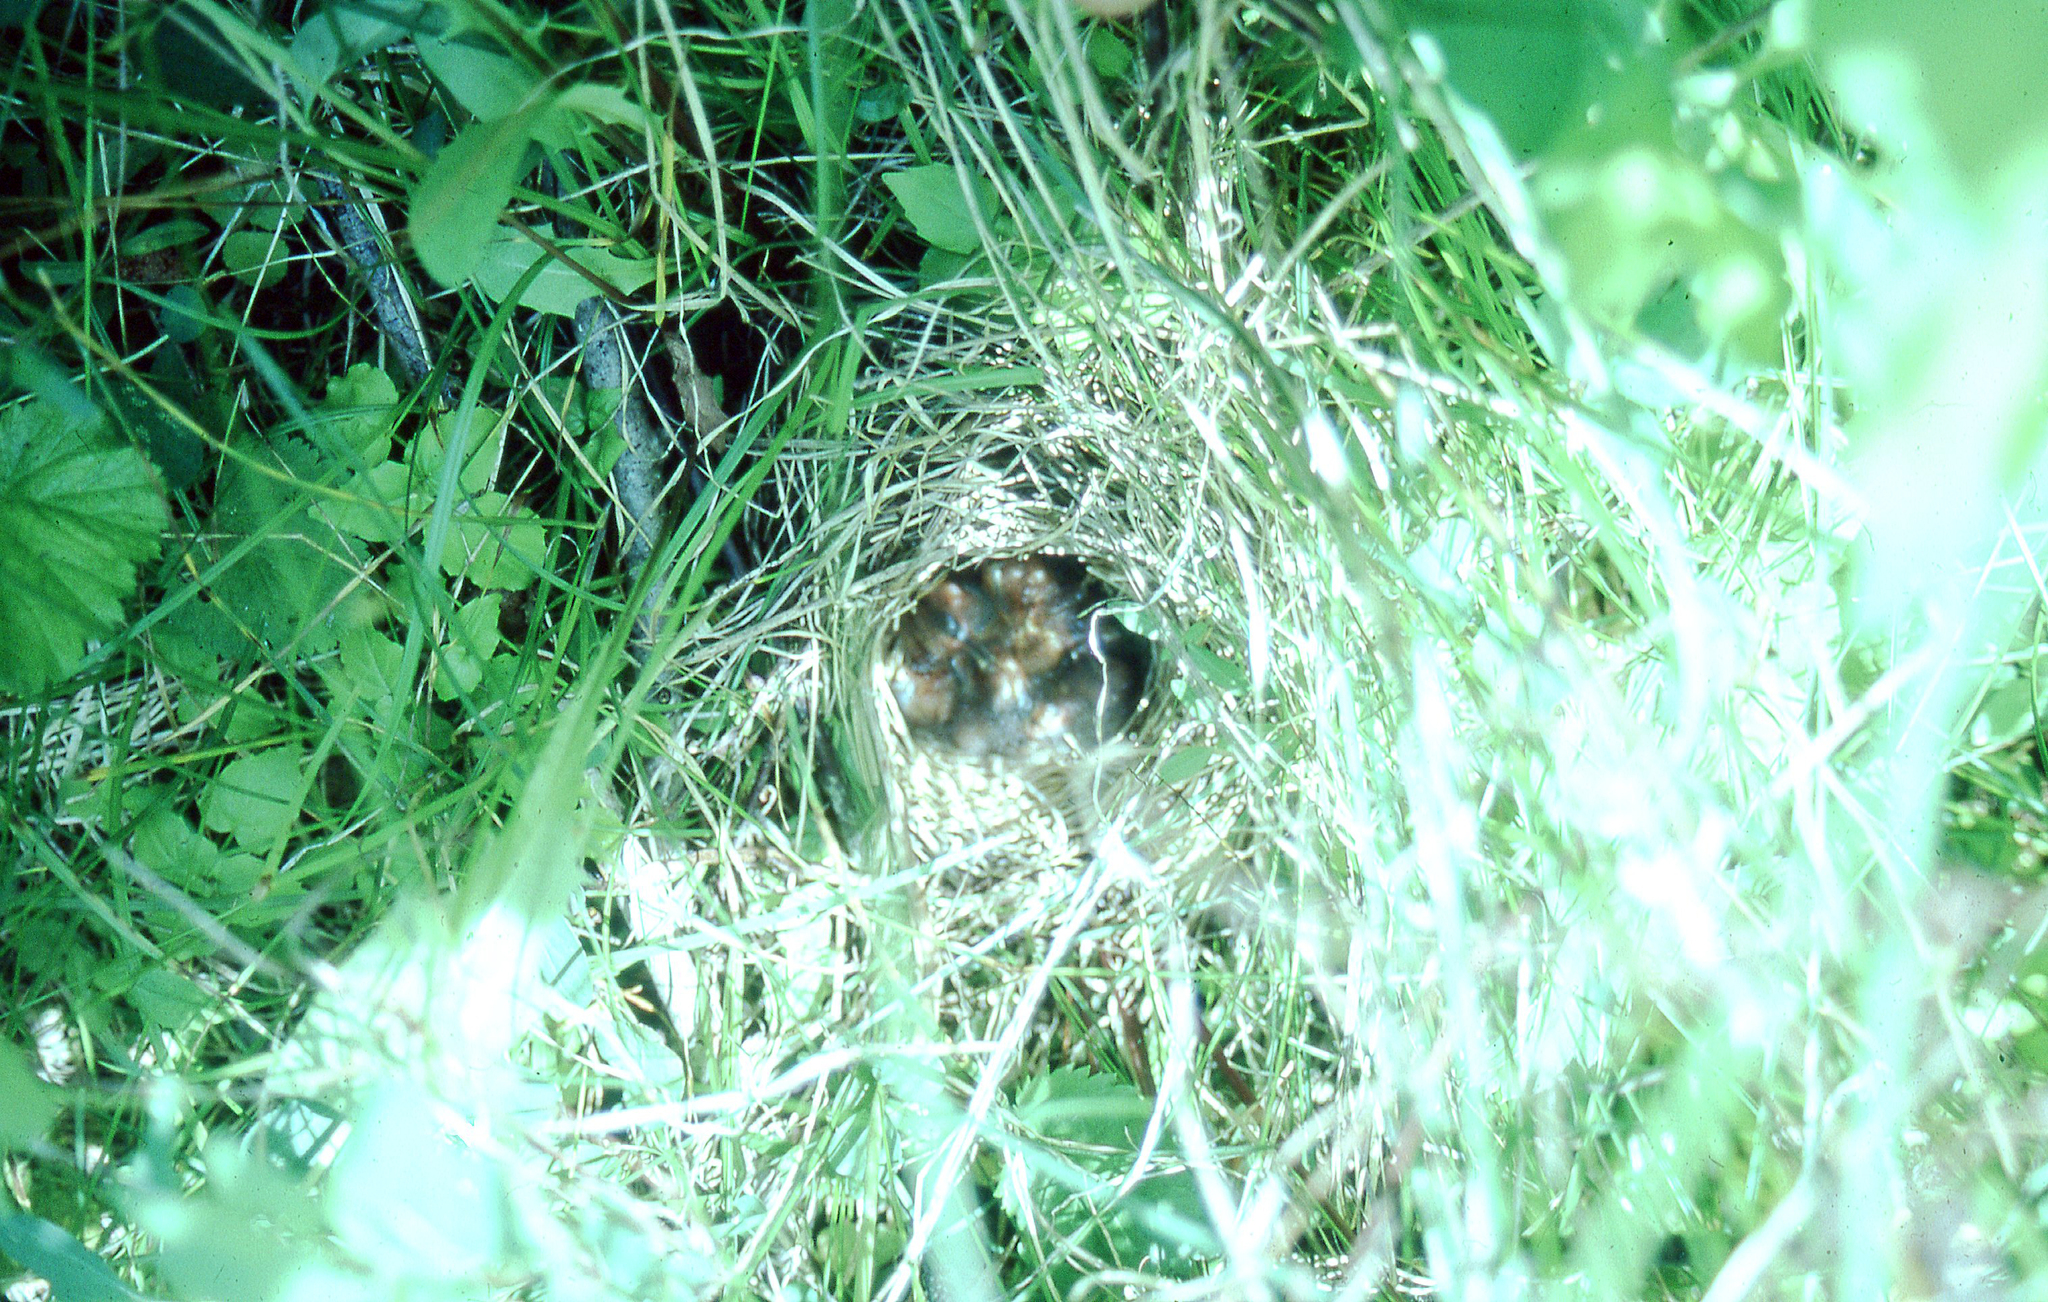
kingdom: Animalia
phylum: Chordata
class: Aves
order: Passeriformes
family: Passerellidae
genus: Melospiza
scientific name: Melospiza lincolnii
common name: Lincoln's sparrow
